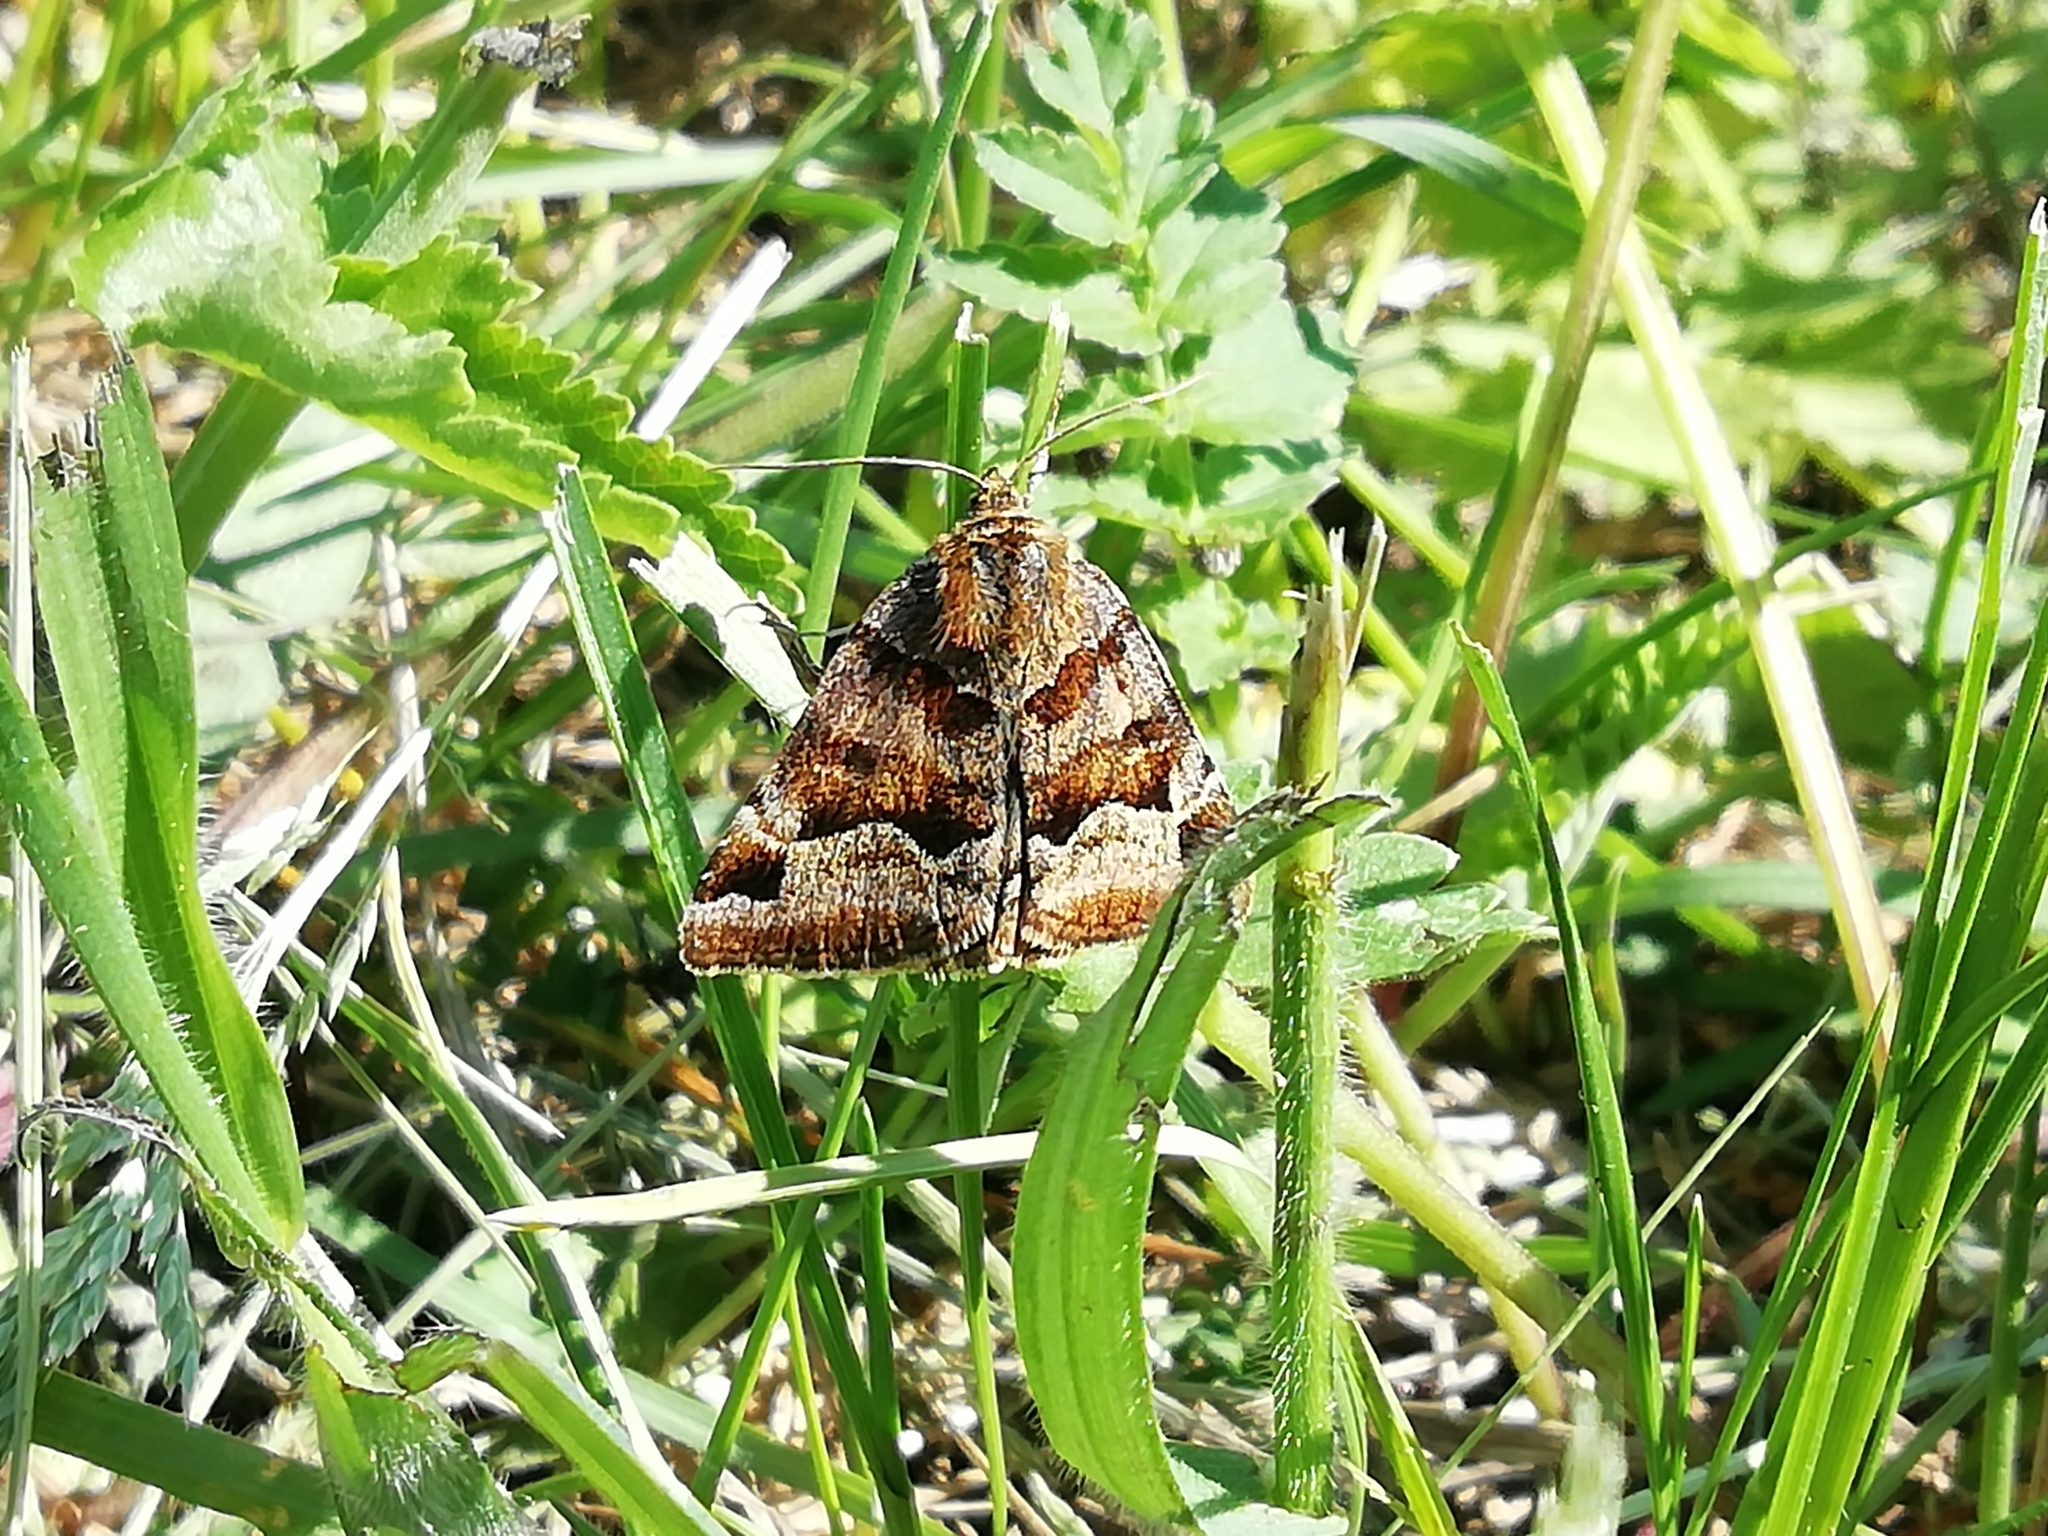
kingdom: Animalia
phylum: Arthropoda
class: Insecta
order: Lepidoptera
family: Erebidae
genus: Euclidia
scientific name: Euclidia glyphica
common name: Burnet companion
